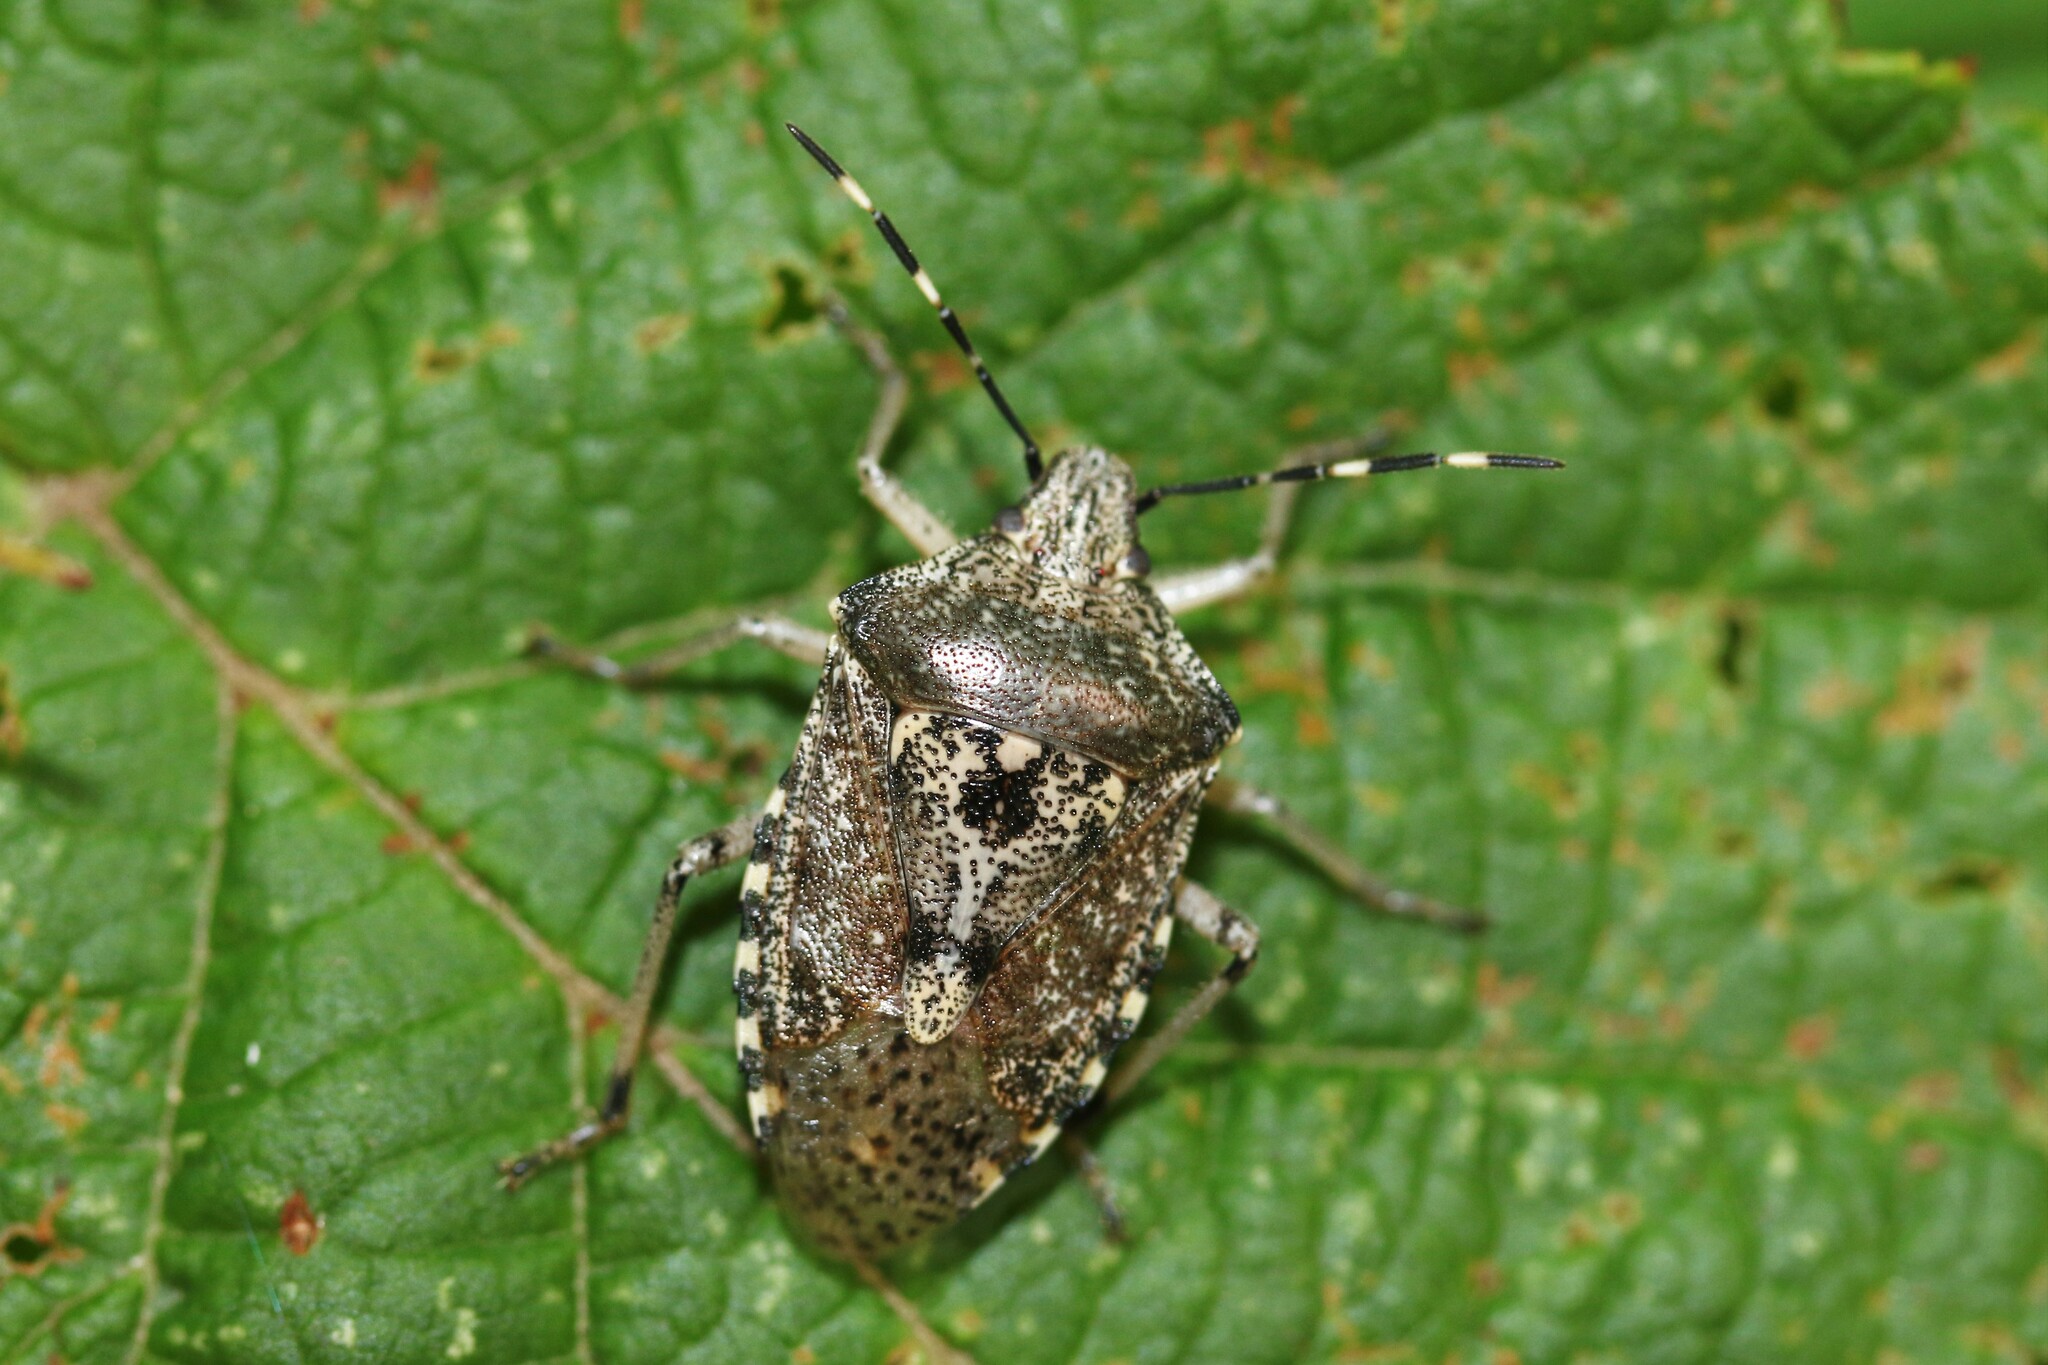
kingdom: Animalia
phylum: Arthropoda
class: Insecta
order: Hemiptera
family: Pentatomidae
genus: Rhaphigaster
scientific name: Rhaphigaster nebulosa
